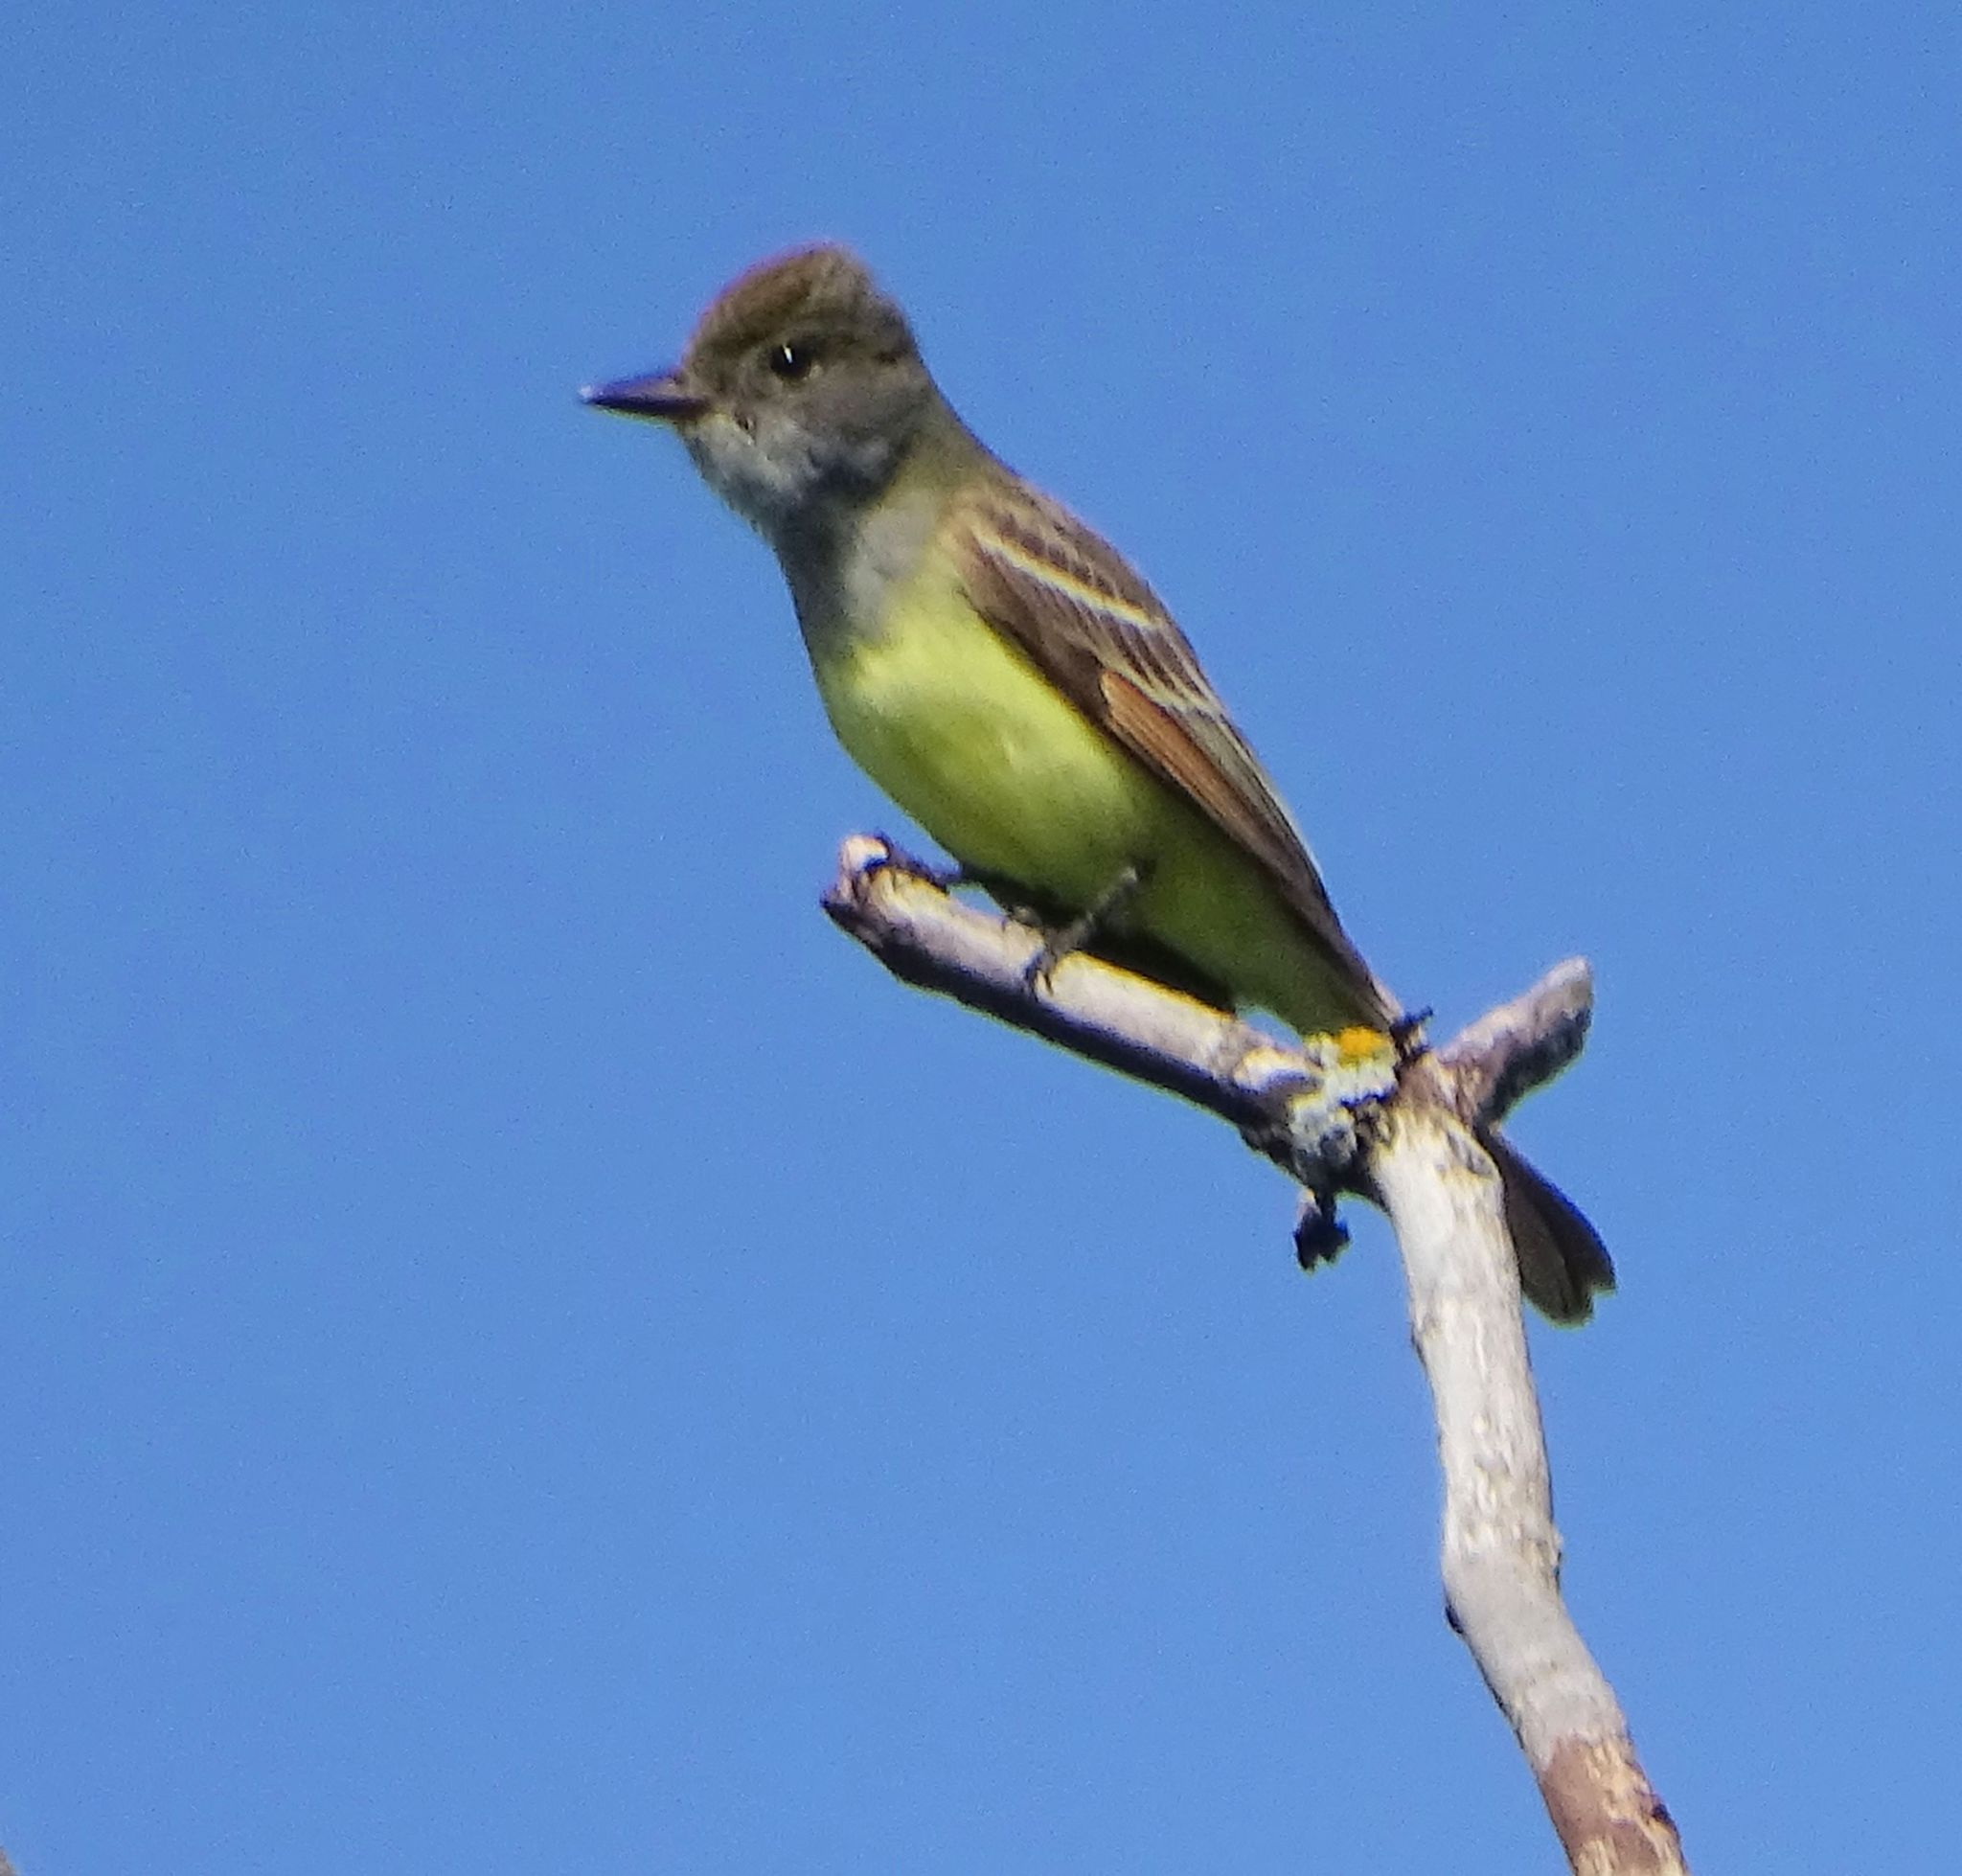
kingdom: Animalia
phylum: Chordata
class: Aves
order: Passeriformes
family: Tyrannidae
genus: Myiarchus
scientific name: Myiarchus crinitus
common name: Great crested flycatcher
